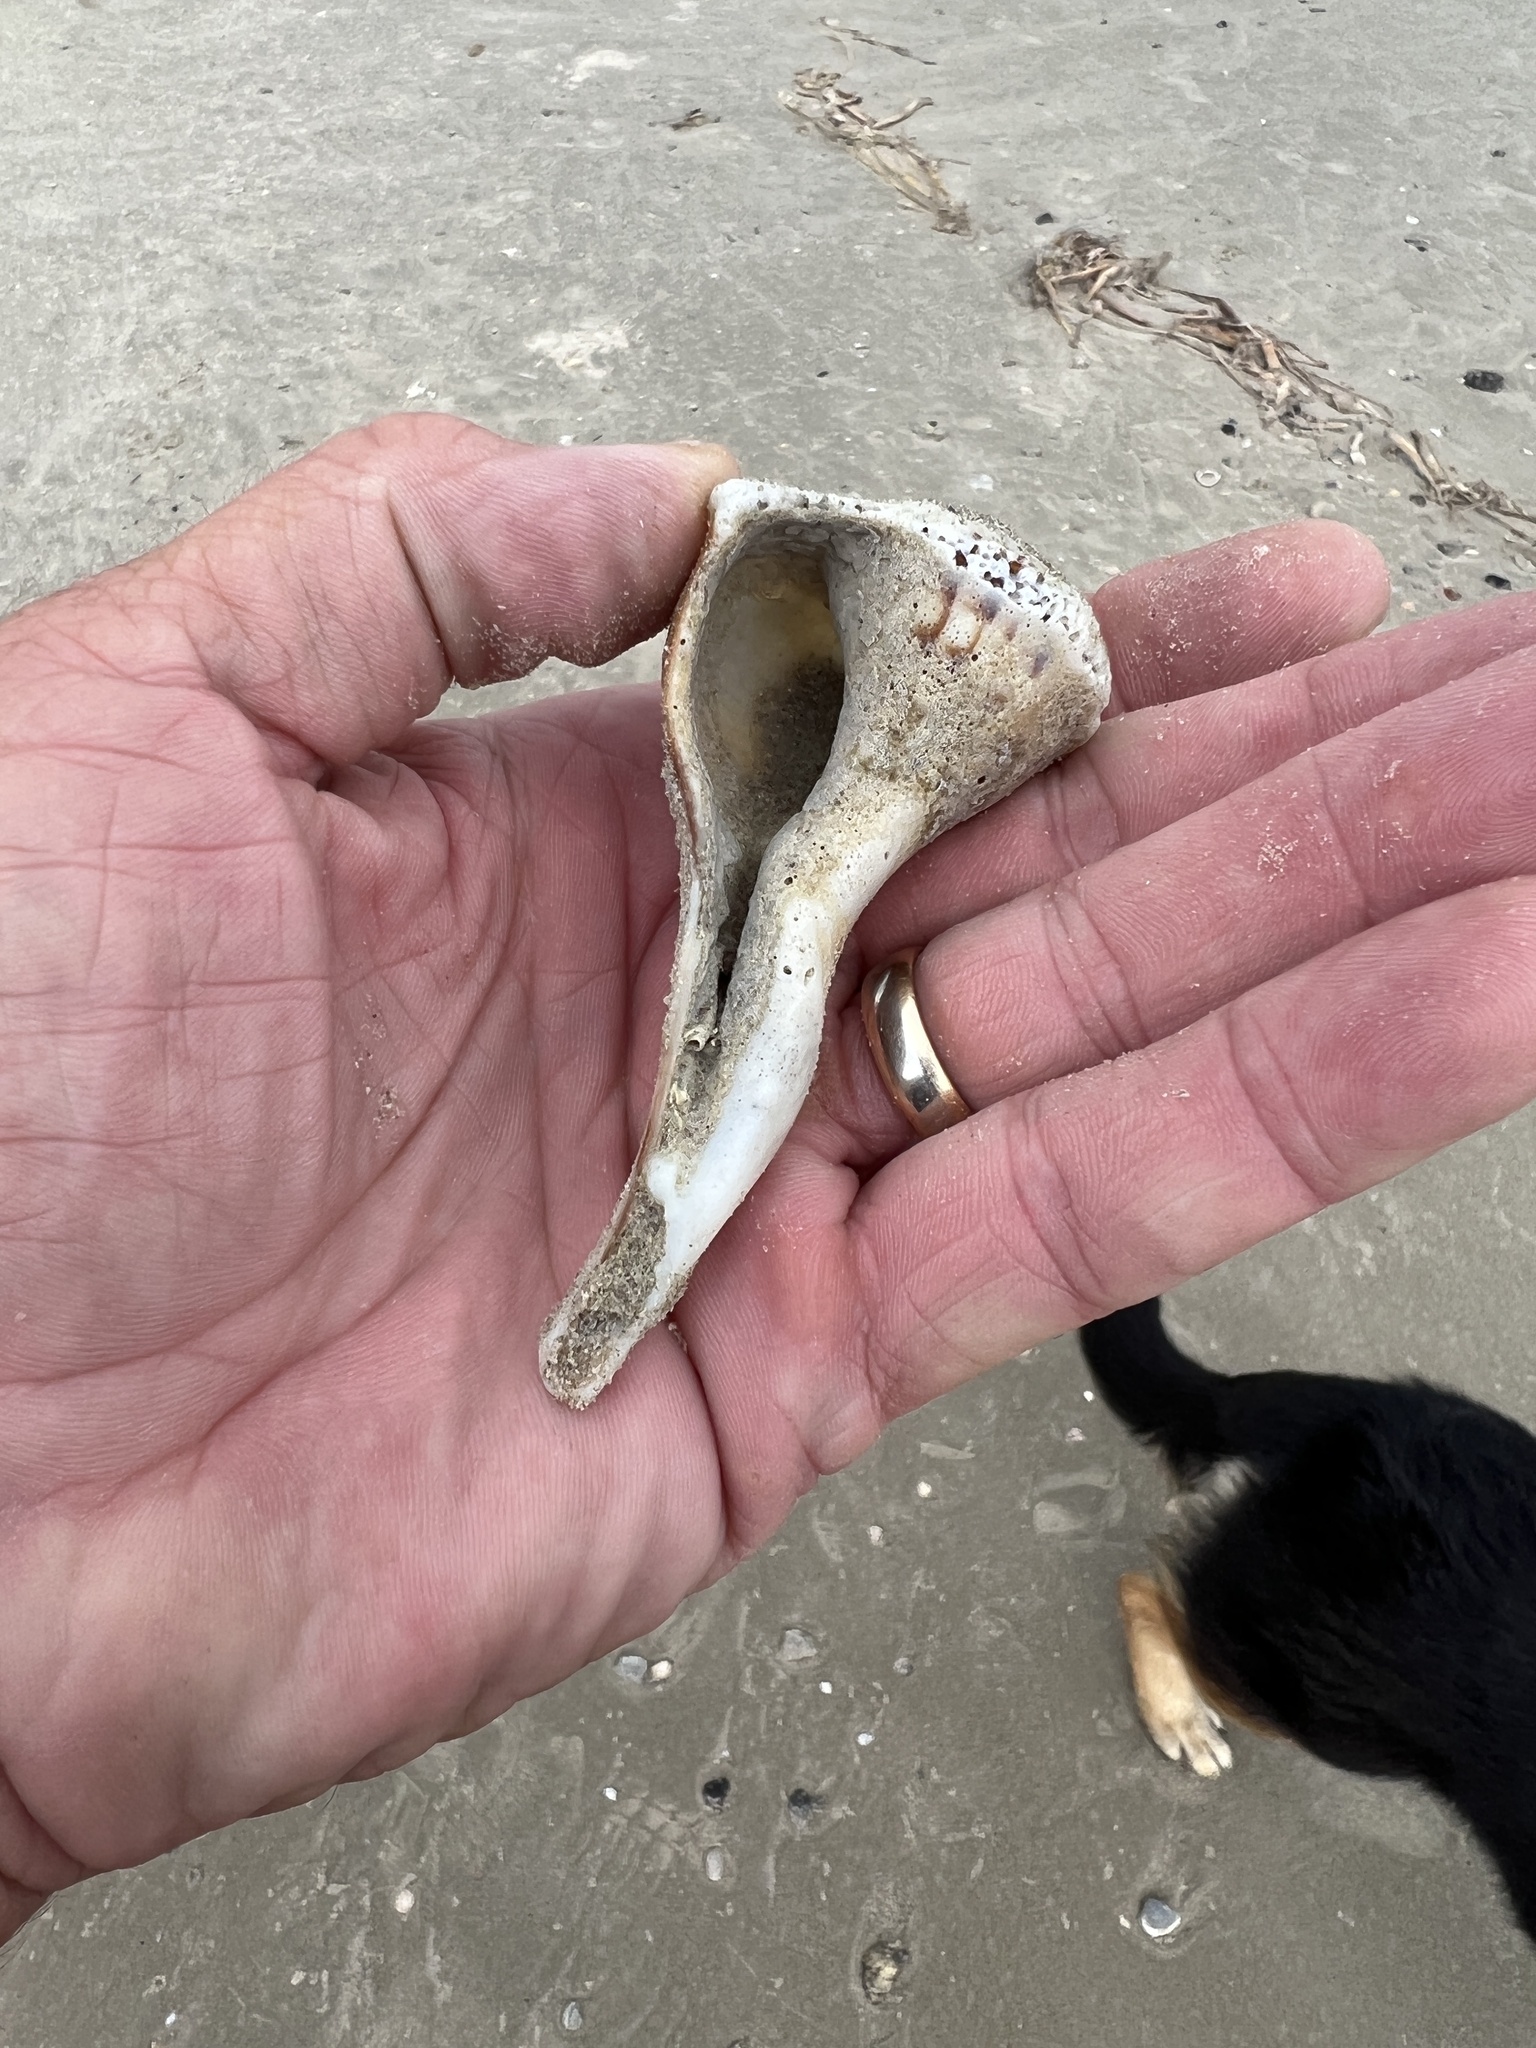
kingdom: Animalia
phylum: Mollusca
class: Gastropoda
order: Neogastropoda
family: Busyconidae
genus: Sinistrofulgur
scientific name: Sinistrofulgur pulleyi
